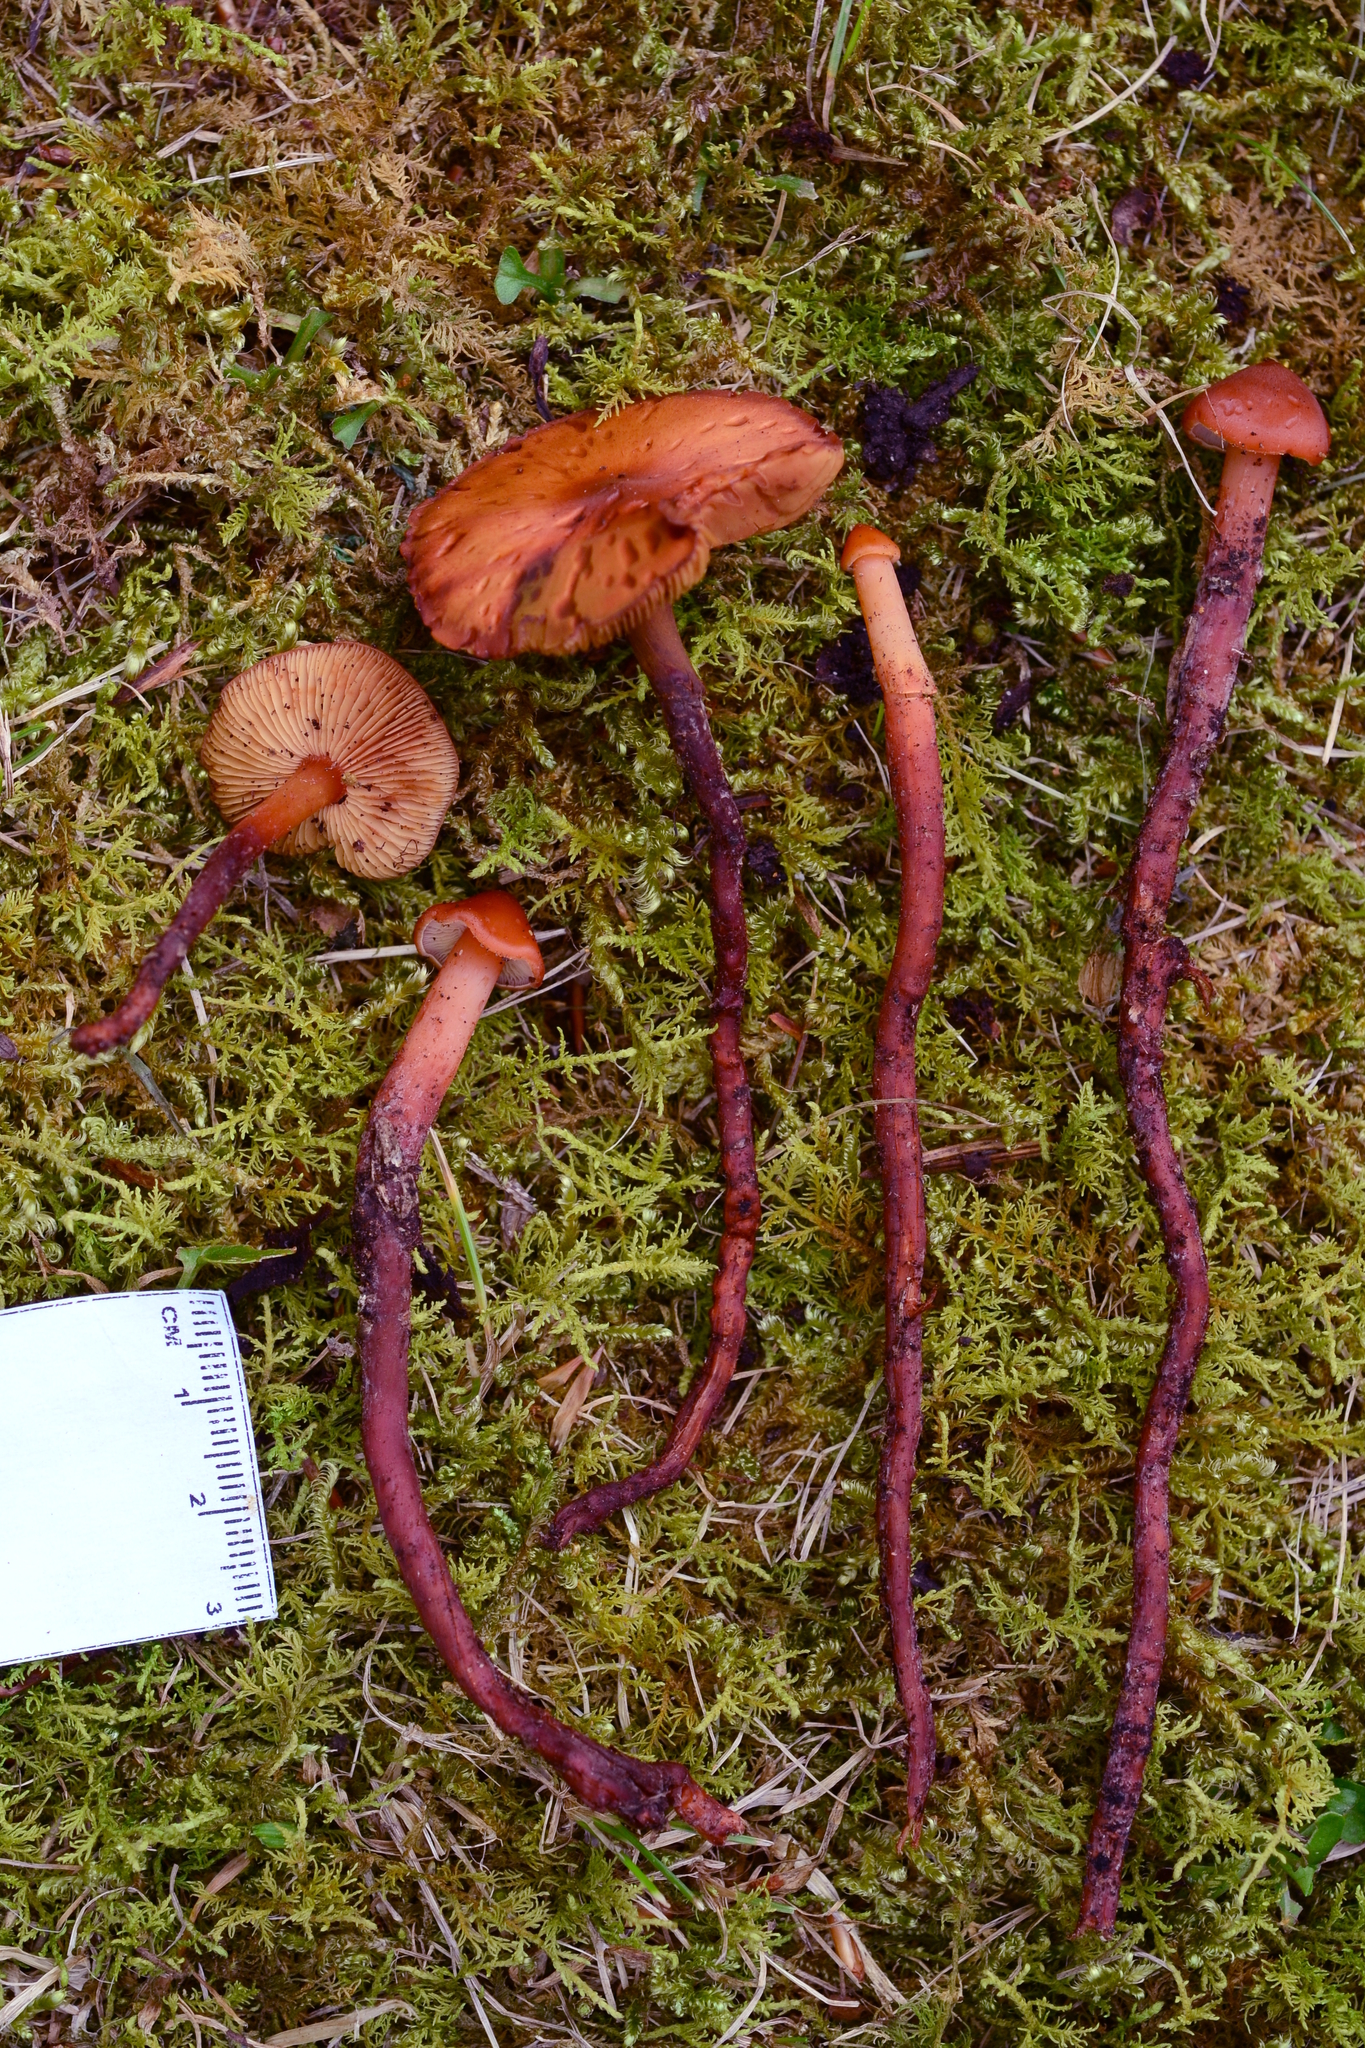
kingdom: Fungi
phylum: Basidiomycota
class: Agaricomycetes
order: Agaricales
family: Hymenogastraceae
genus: Phaeocollybia
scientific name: Phaeocollybia christinae
